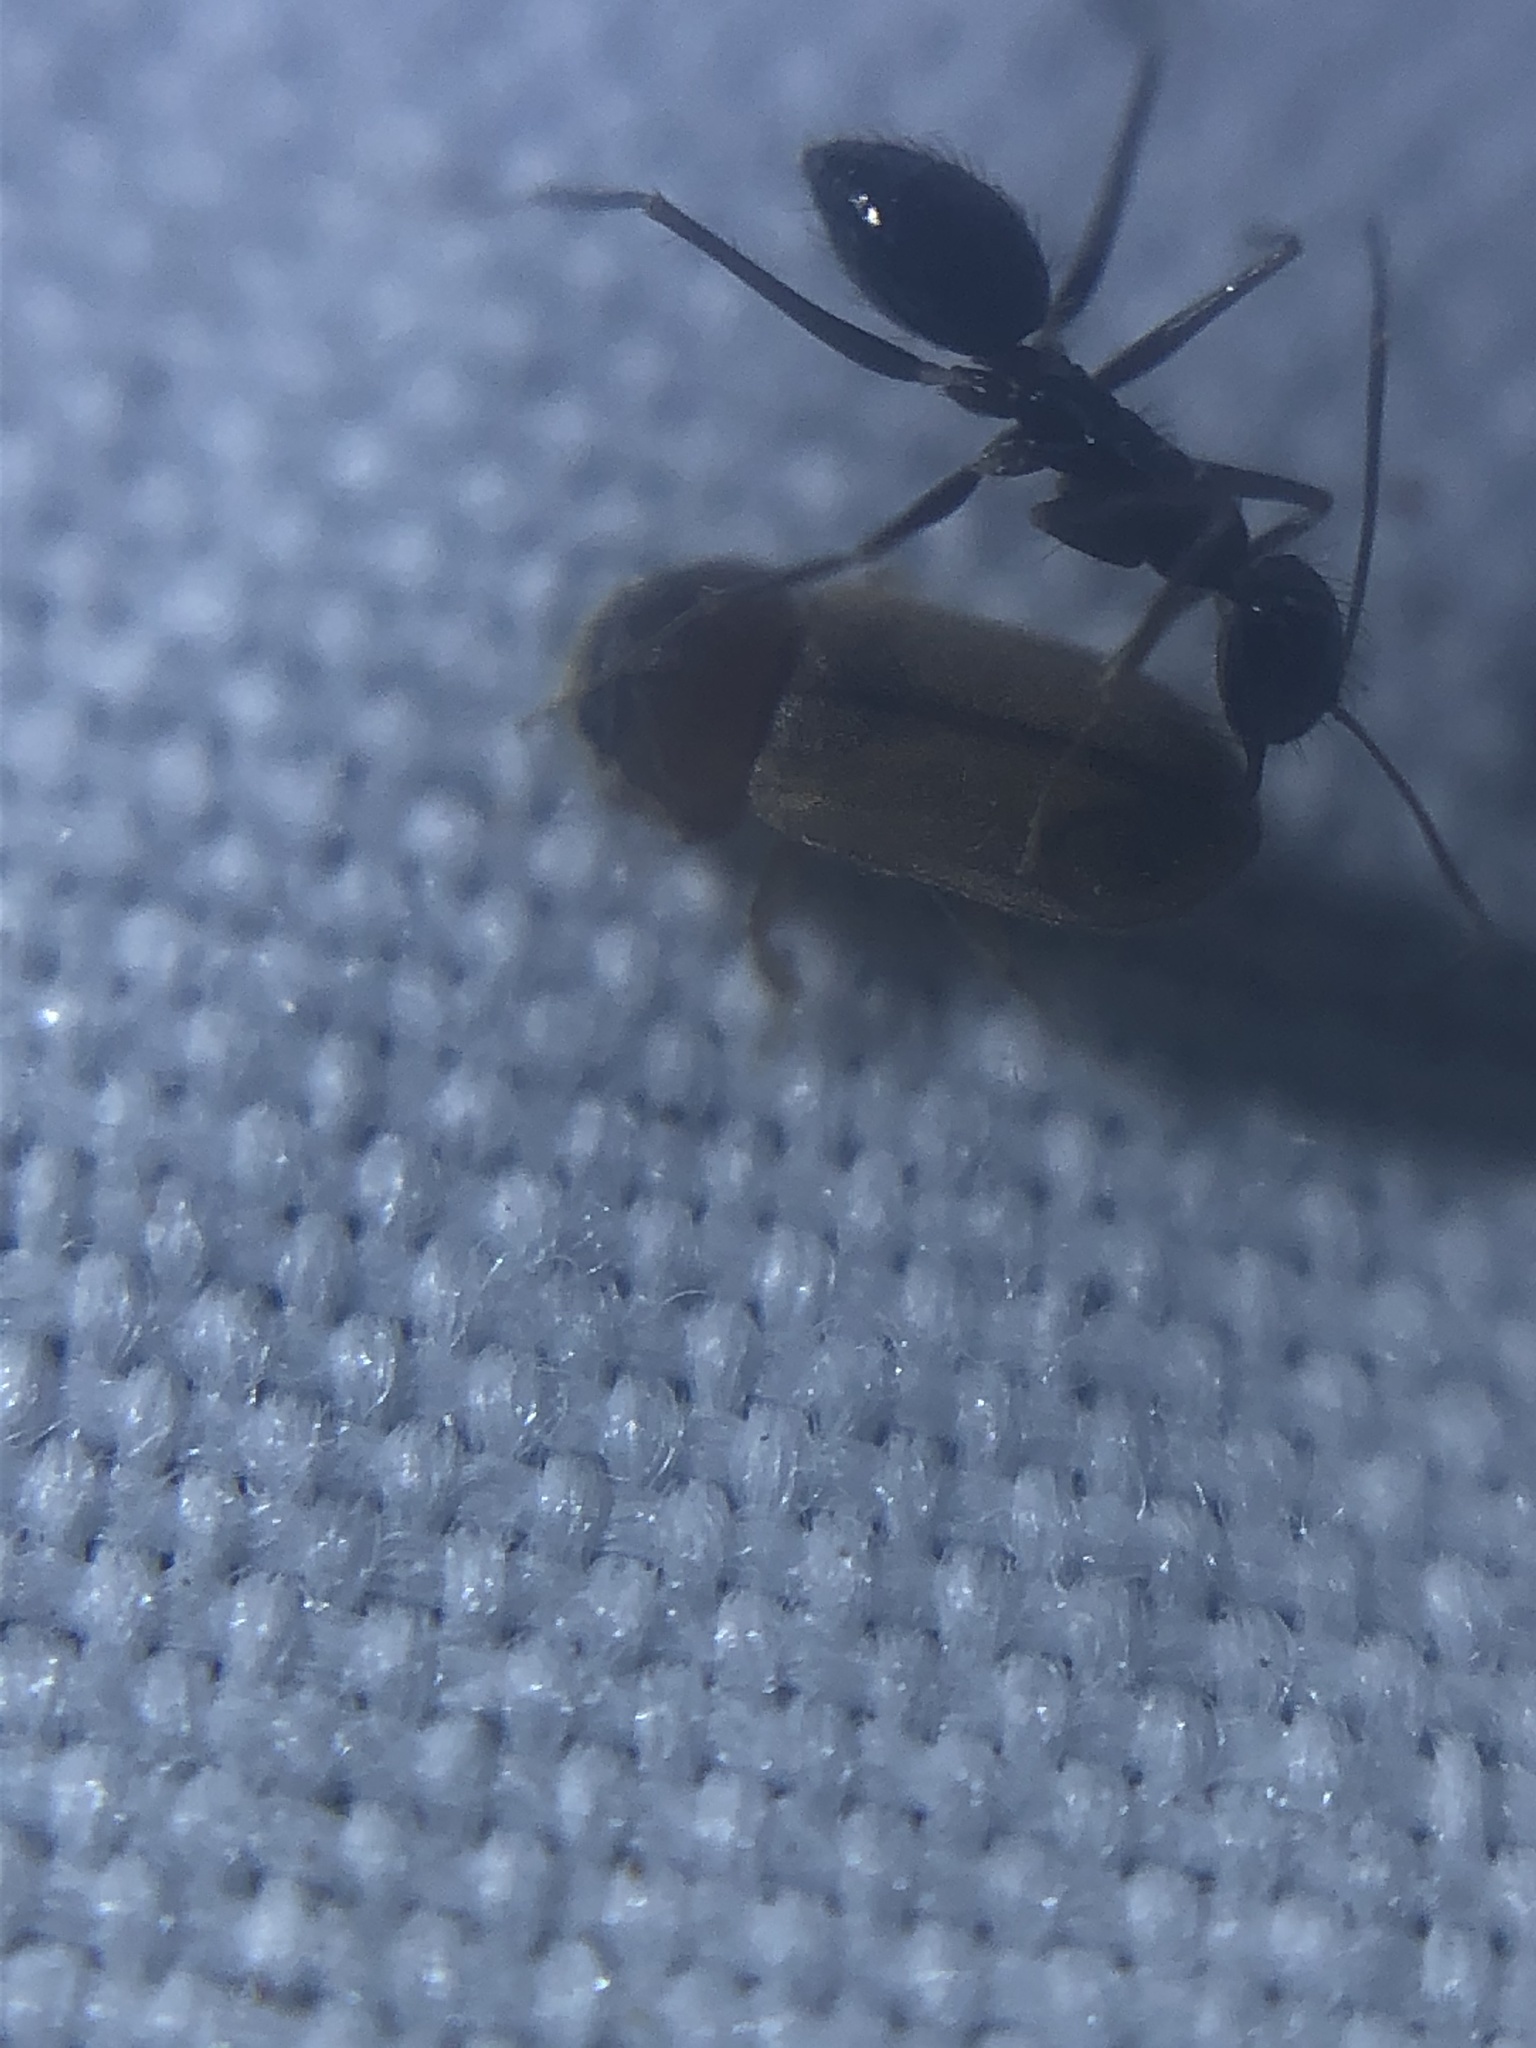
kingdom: Animalia
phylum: Arthropoda
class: Insecta
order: Hymenoptera
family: Formicidae
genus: Paratrechina
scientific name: Paratrechina longicornis
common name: Longhorned crazy ant
